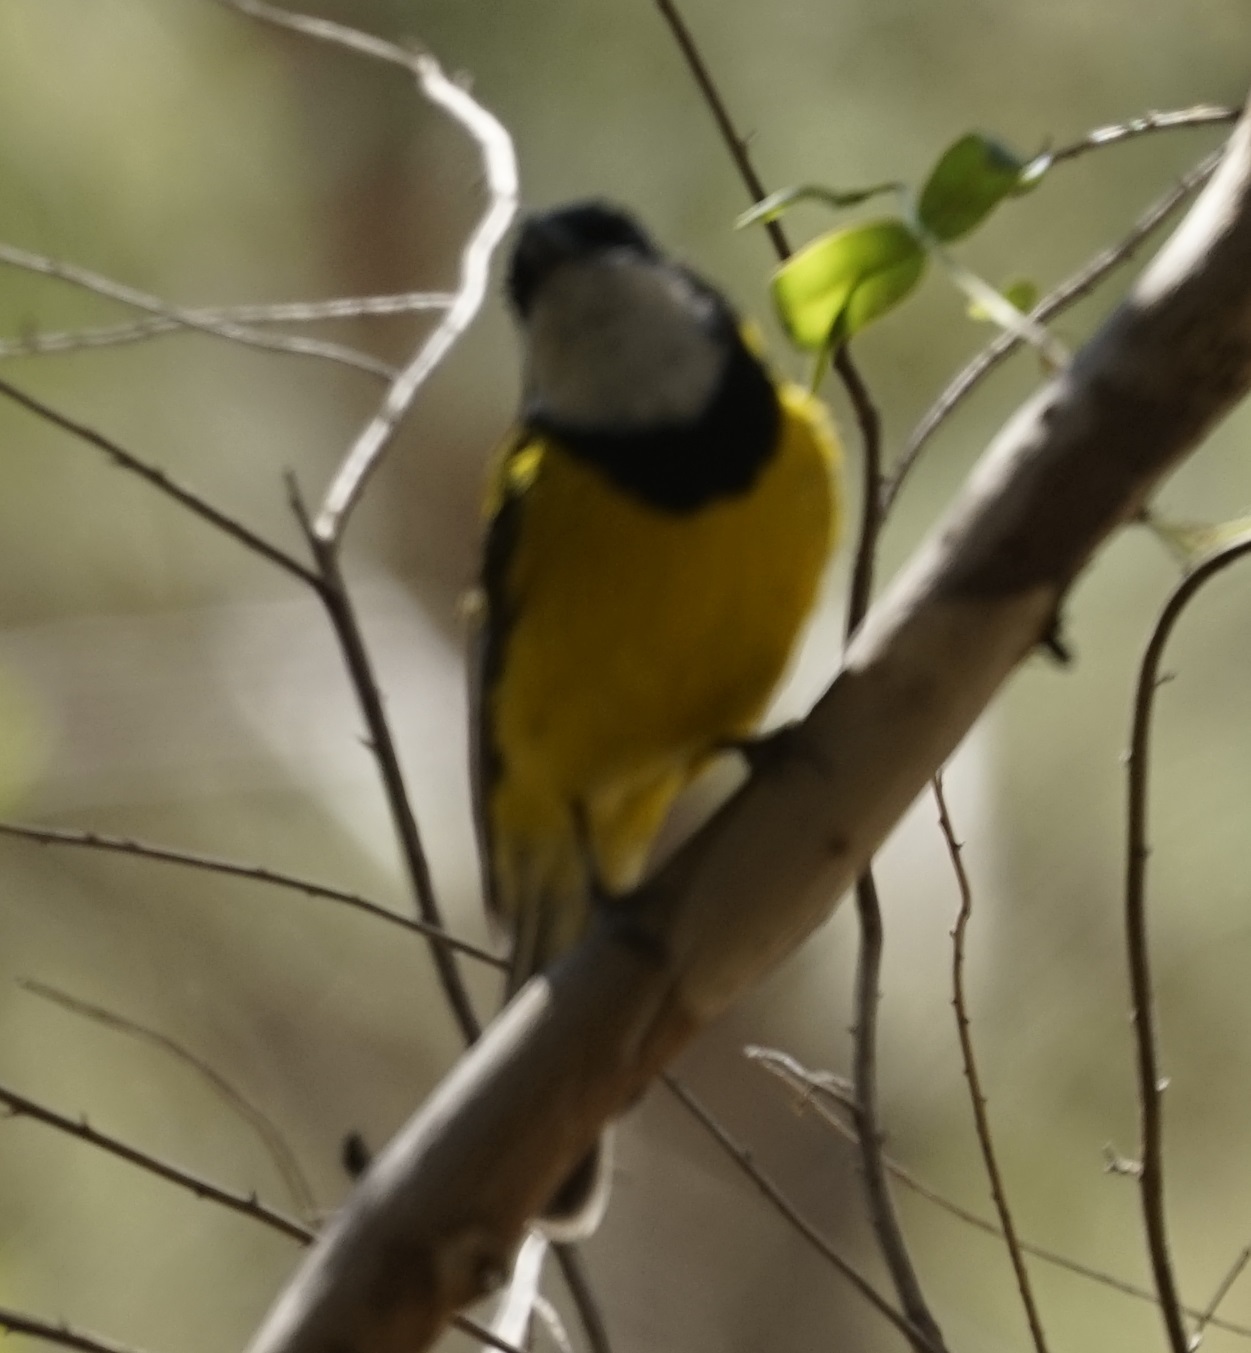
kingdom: Animalia
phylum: Chordata
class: Aves
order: Passeriformes
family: Pachycephalidae
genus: Pachycephala
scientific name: Pachycephala pectoralis
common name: Australian golden whistler
